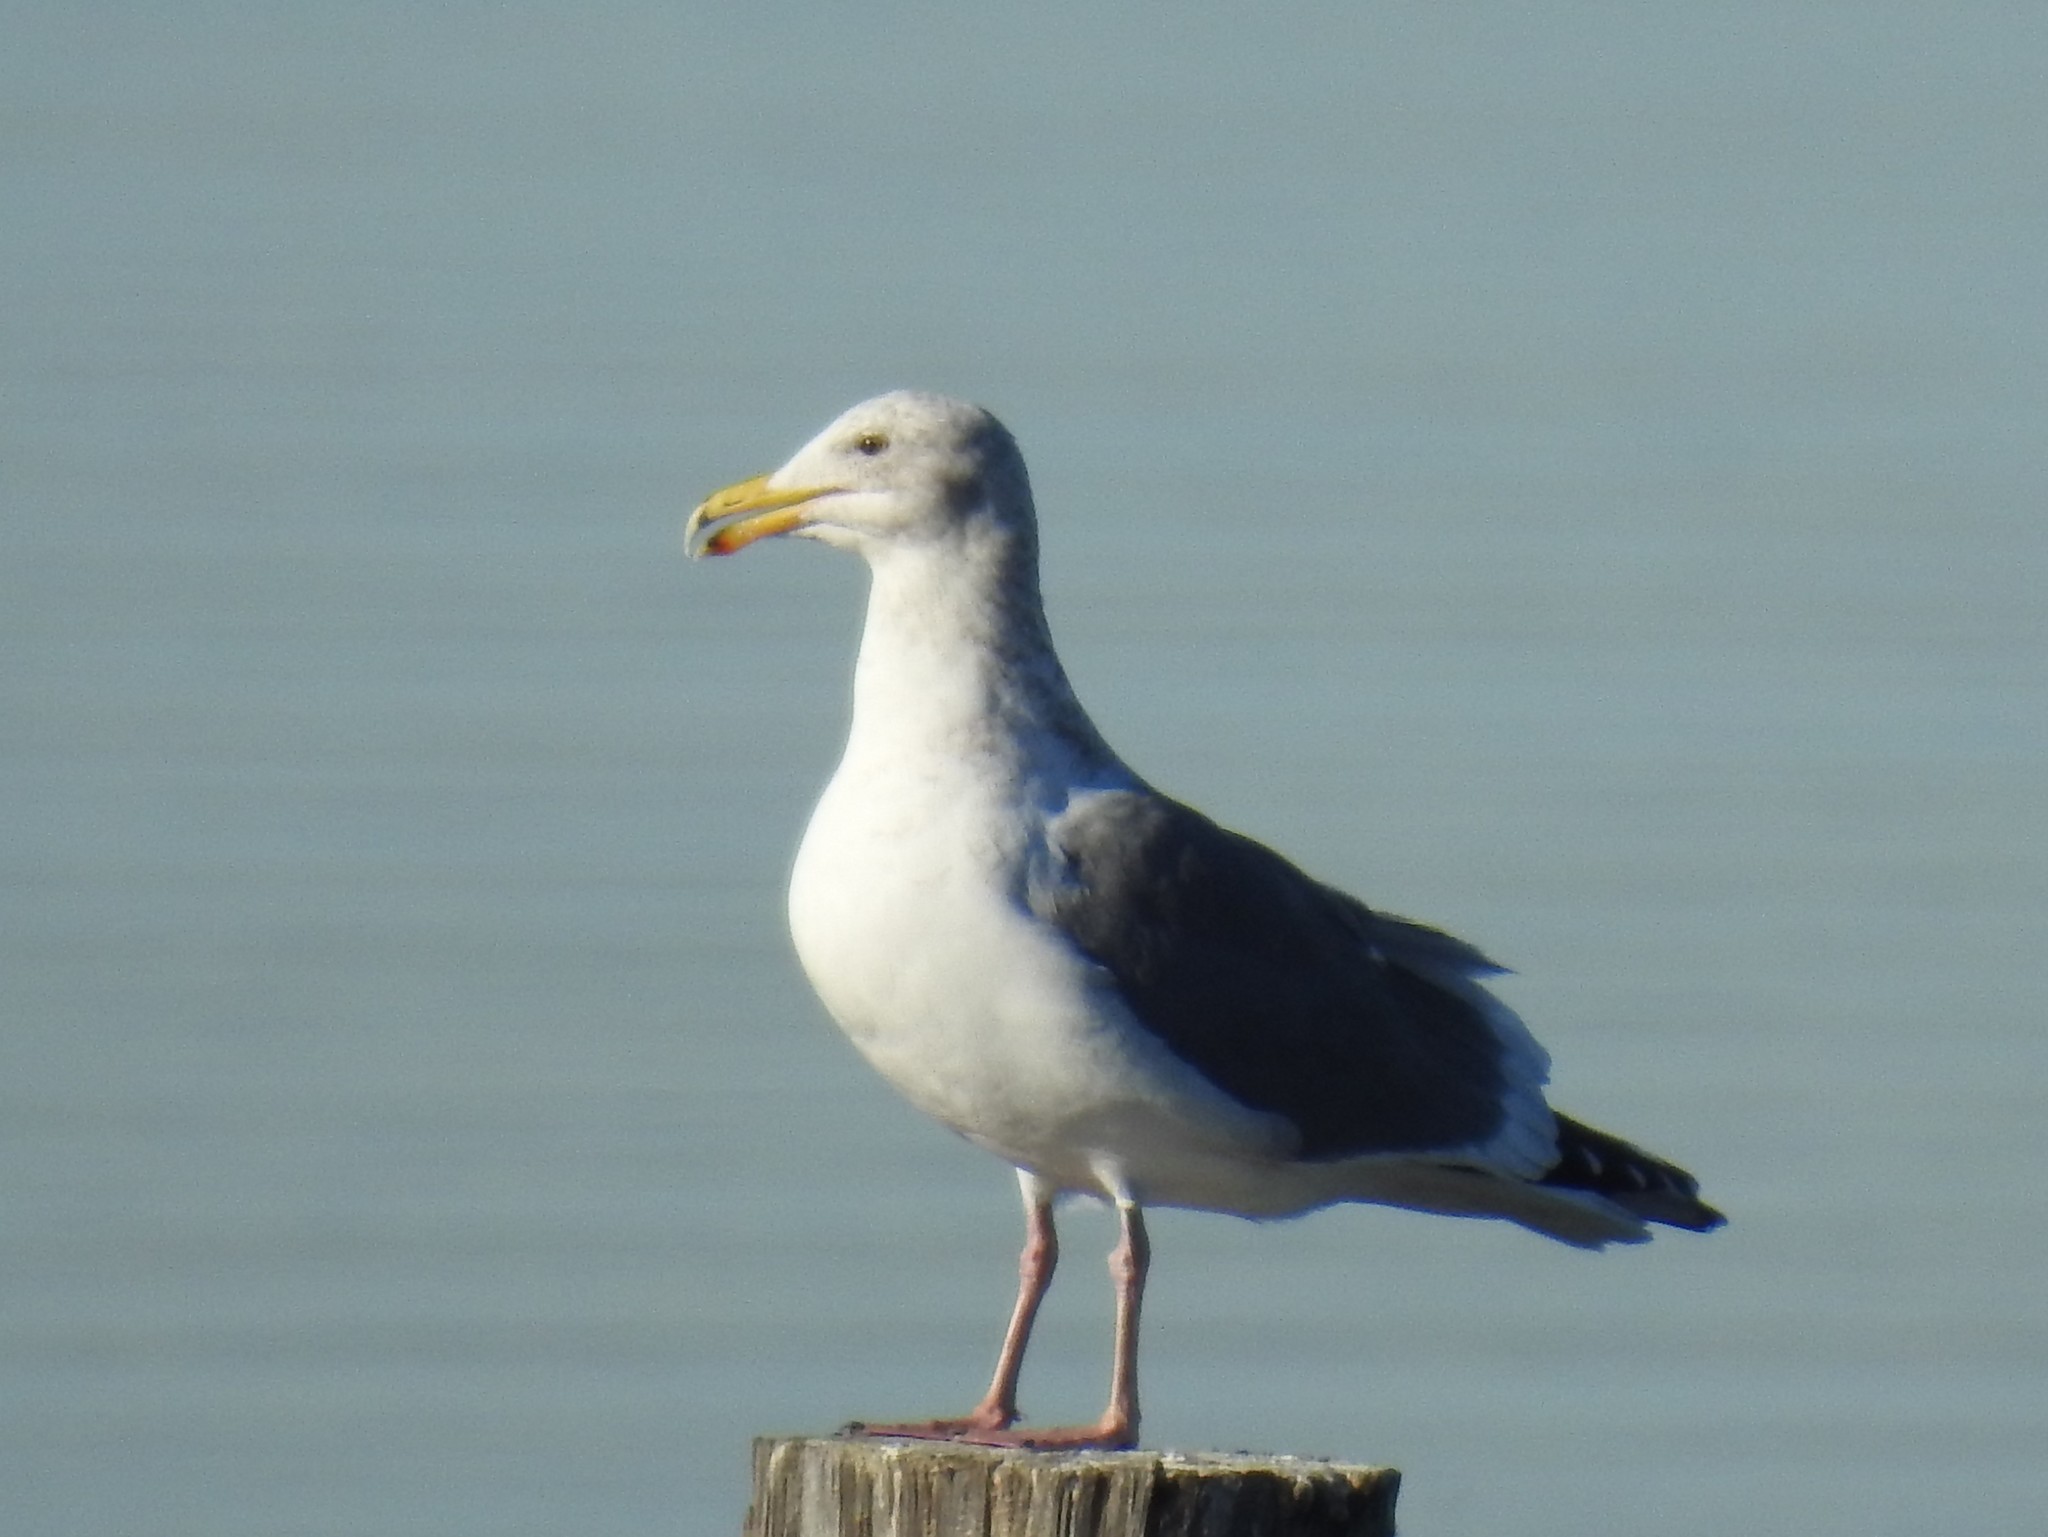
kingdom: Animalia
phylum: Chordata
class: Aves
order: Charadriiformes
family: Laridae
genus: Larus
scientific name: Larus occidentalis
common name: Western gull
